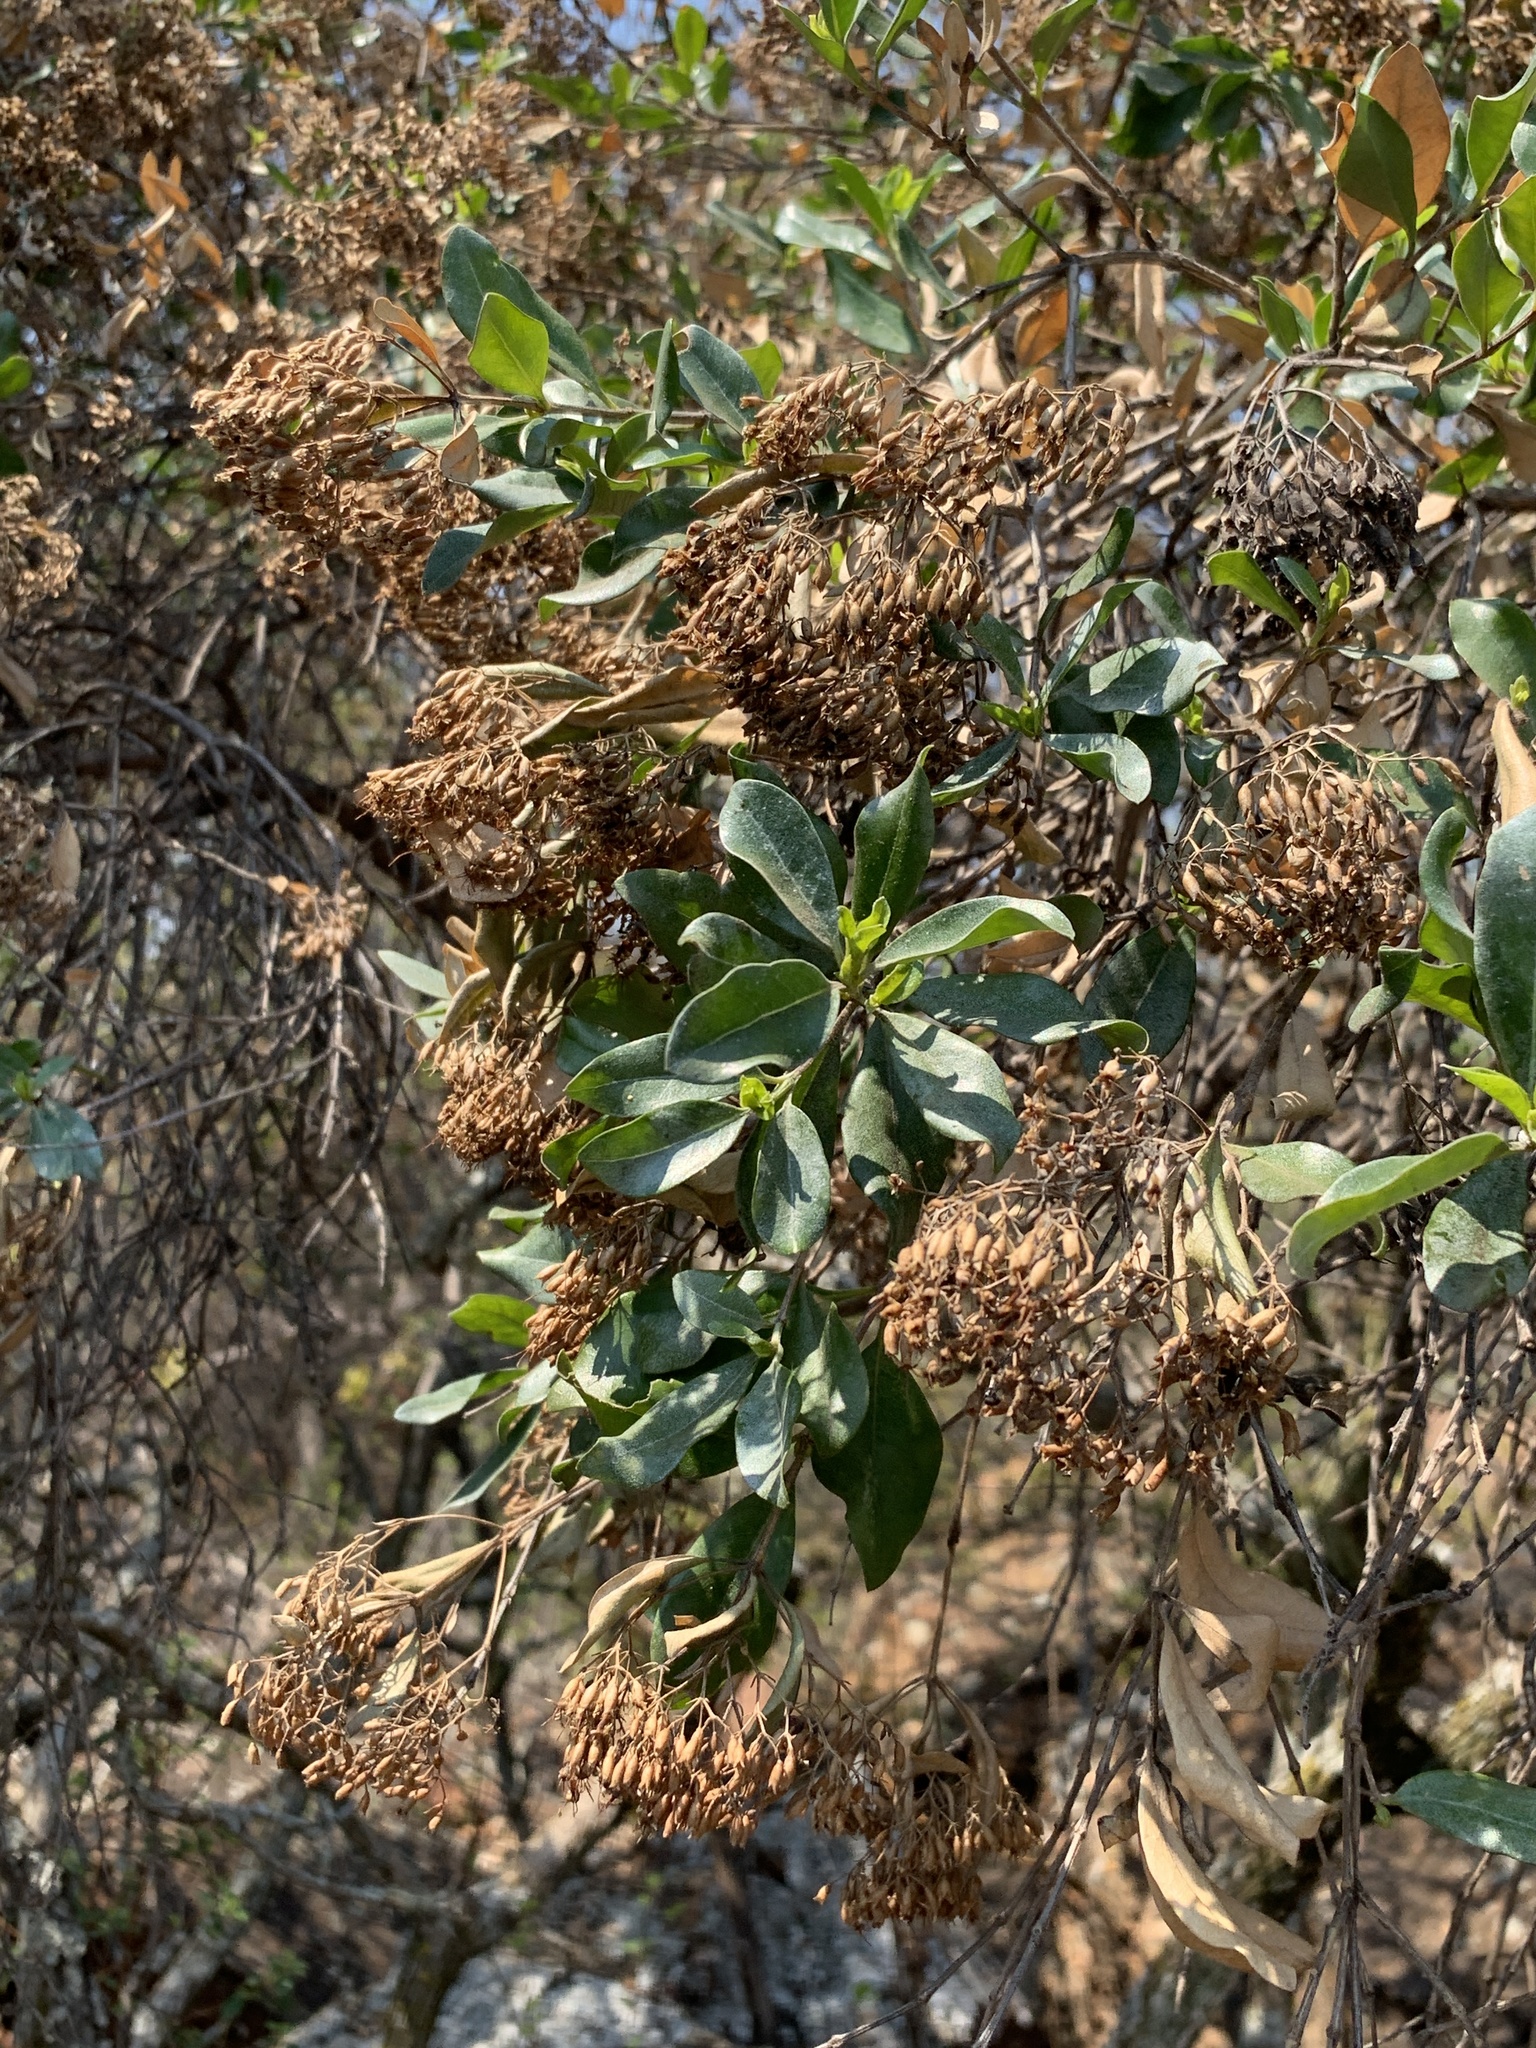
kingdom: Plantae
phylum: Tracheophyta
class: Magnoliopsida
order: Lamiales
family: Stilbaceae
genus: Nuxia
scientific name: Nuxia congesta
